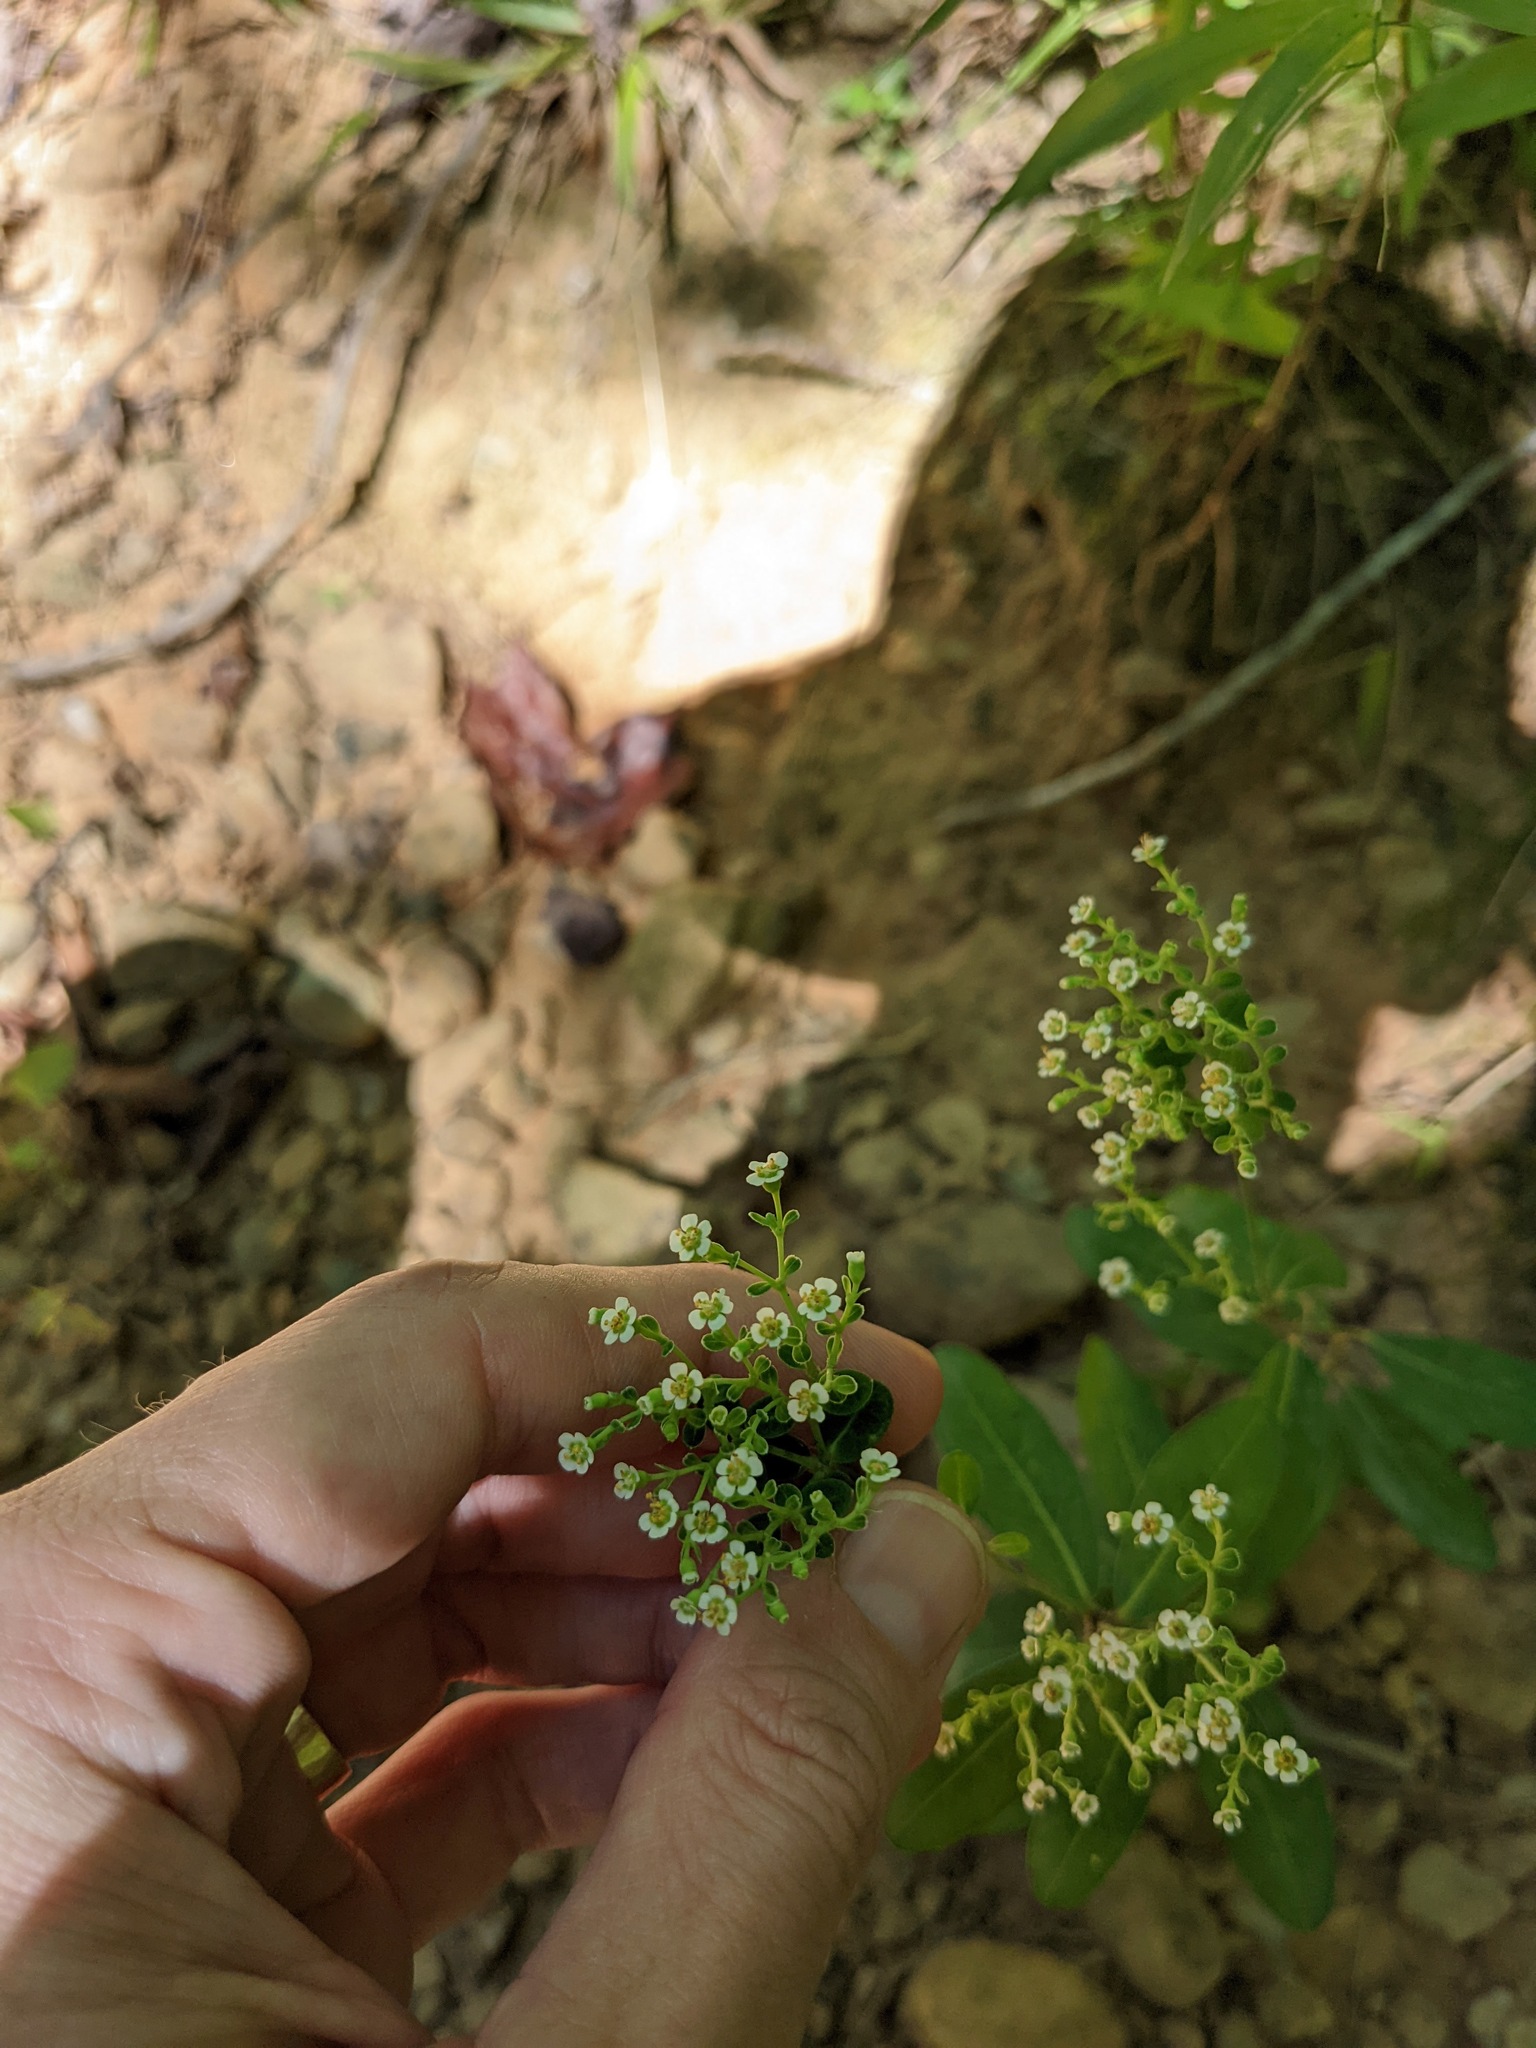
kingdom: Plantae
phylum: Tracheophyta
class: Magnoliopsida
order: Malpighiales
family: Euphorbiaceae
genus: Euphorbia
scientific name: Euphorbia corollata
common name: Flowering spurge
